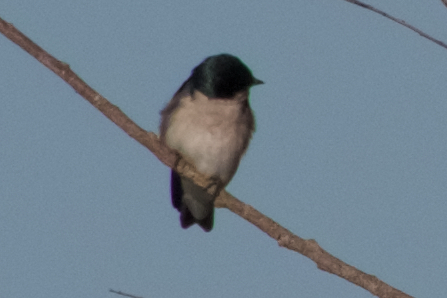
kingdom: Animalia
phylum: Chordata
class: Aves
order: Passeriformes
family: Hirundinidae
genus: Tachycineta
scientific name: Tachycineta bicolor
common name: Tree swallow
